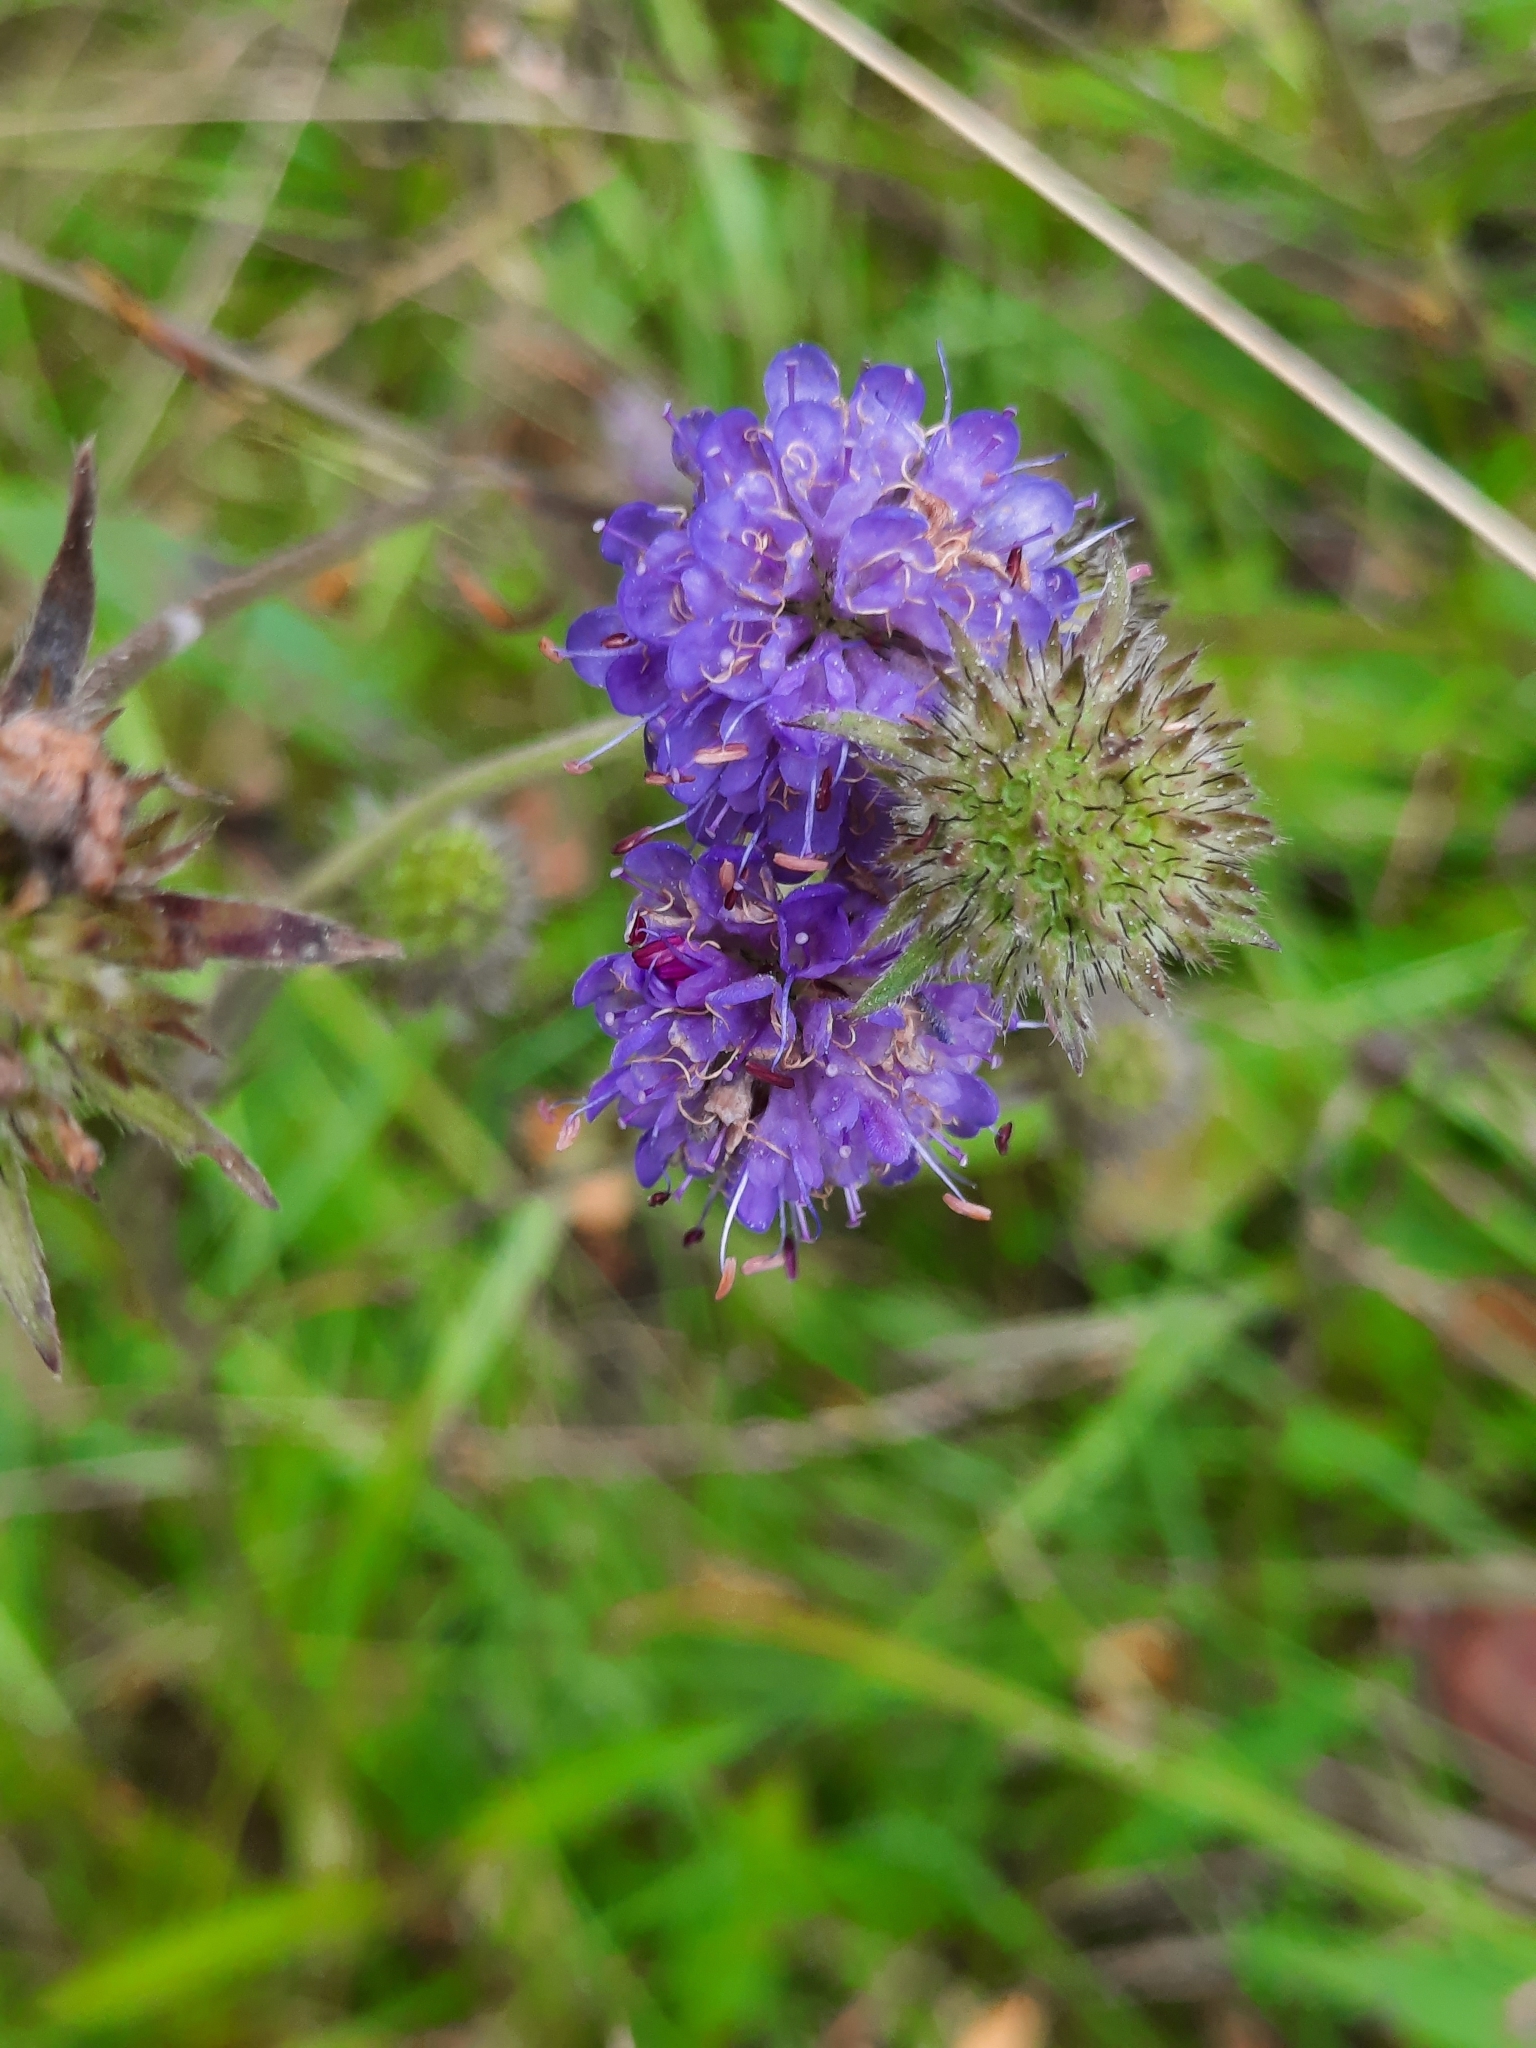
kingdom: Plantae
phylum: Tracheophyta
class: Magnoliopsida
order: Dipsacales
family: Caprifoliaceae
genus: Succisa
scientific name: Succisa pratensis
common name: Devil's-bit
